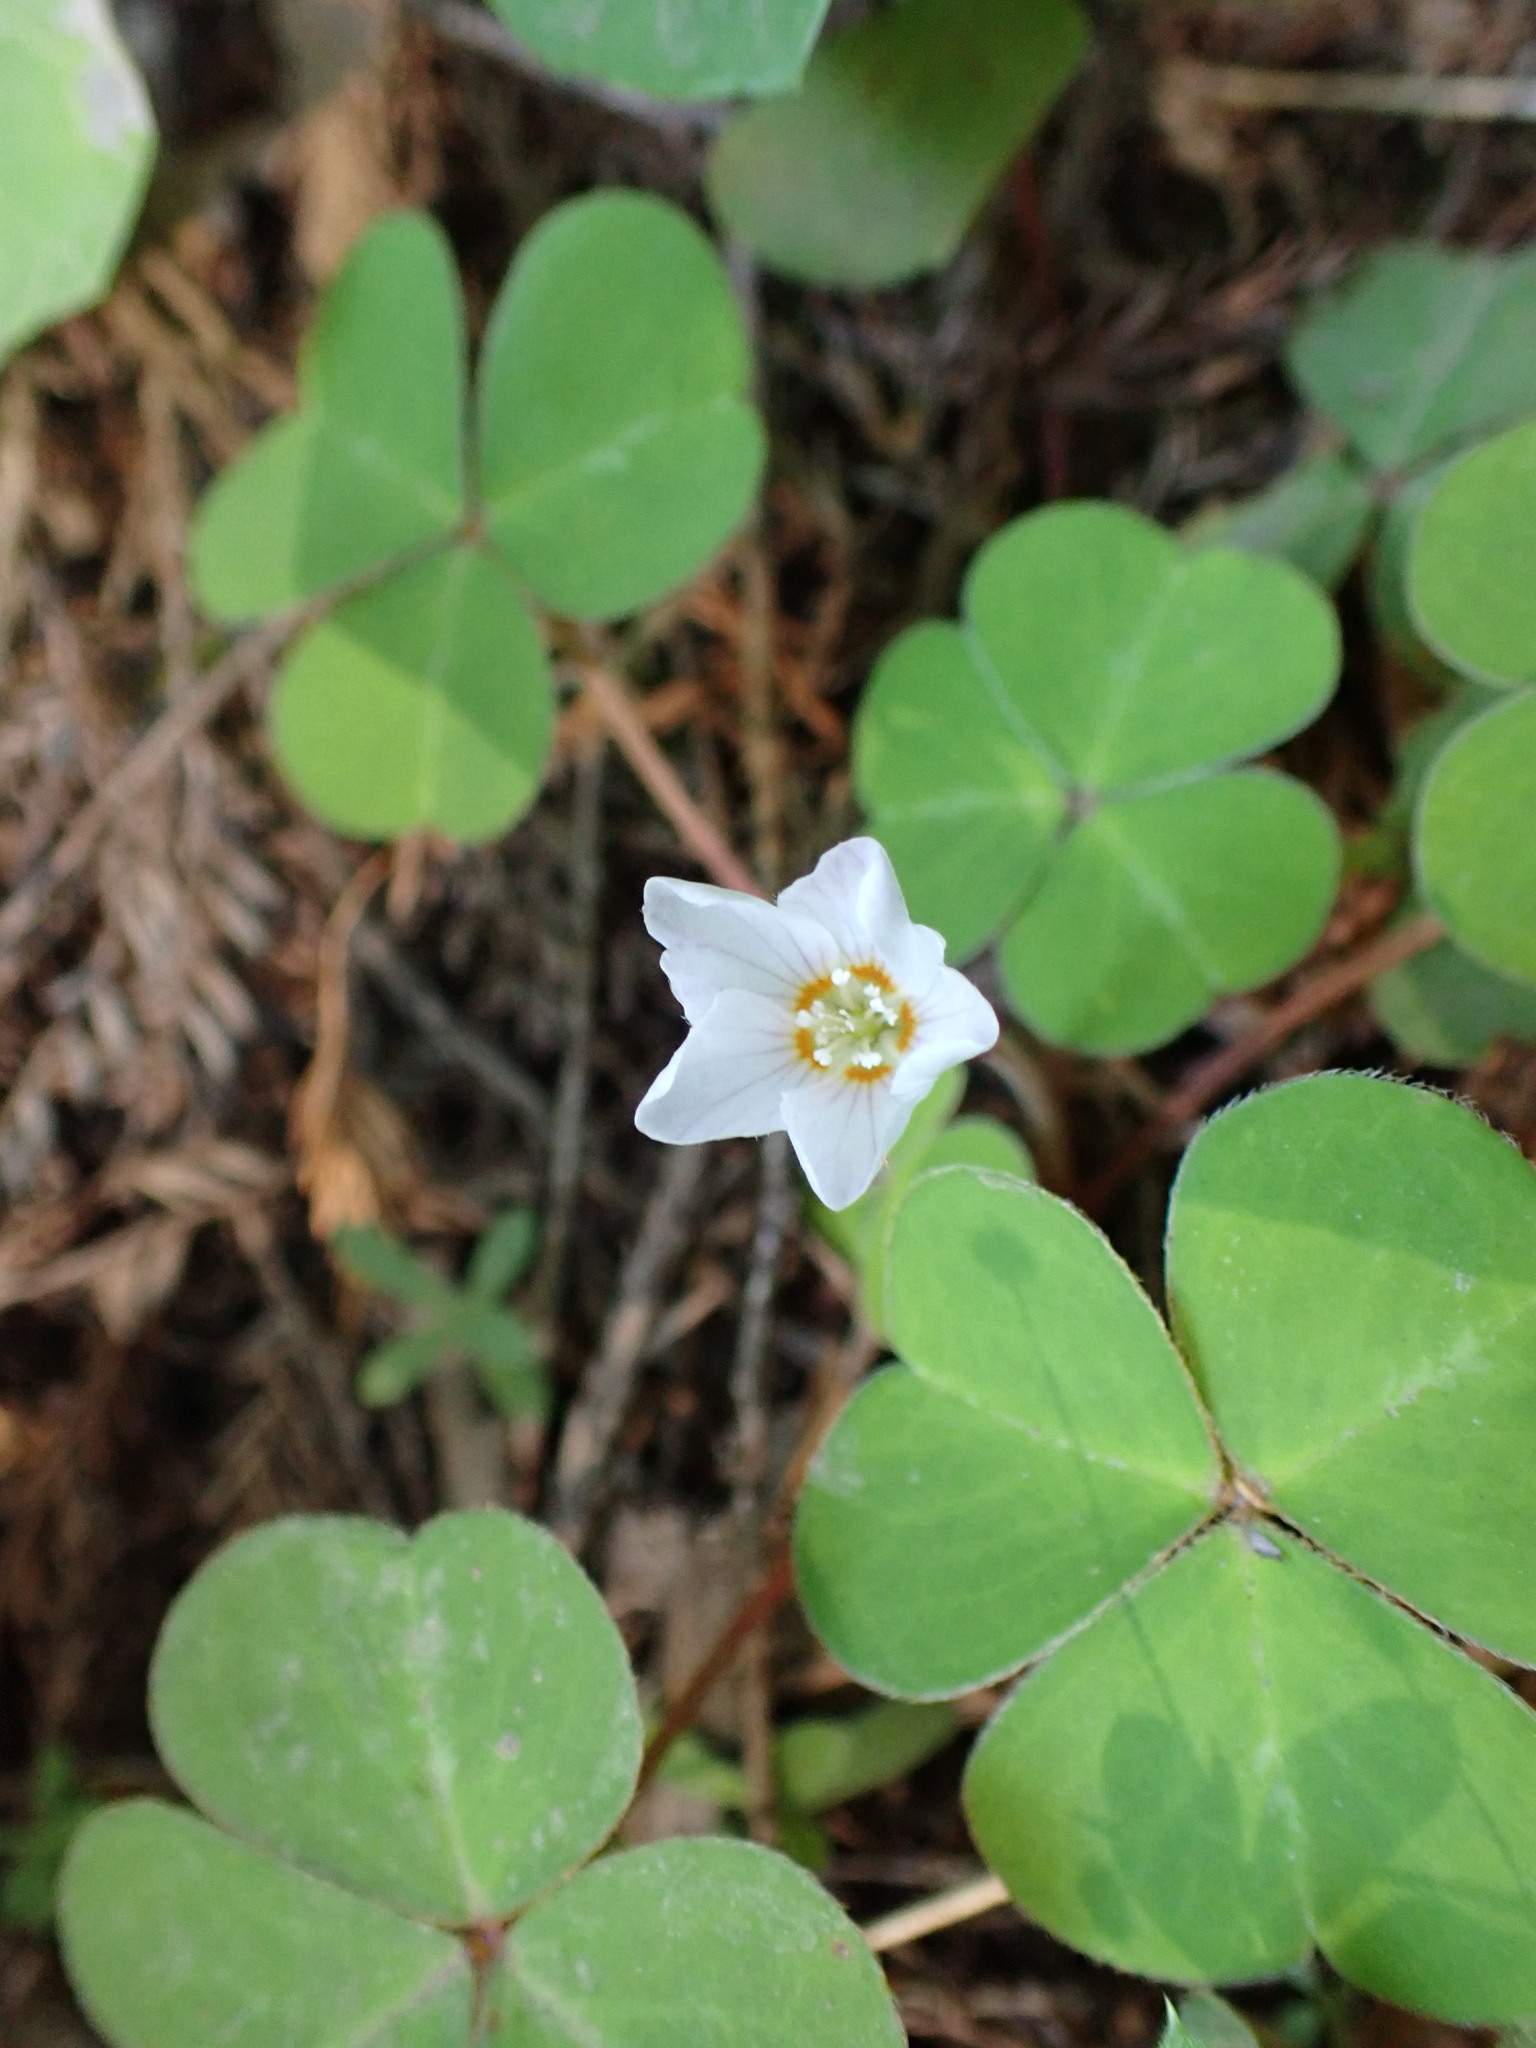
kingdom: Plantae
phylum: Tracheophyta
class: Magnoliopsida
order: Oxalidales
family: Oxalidaceae
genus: Oxalis
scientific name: Oxalis oregana
